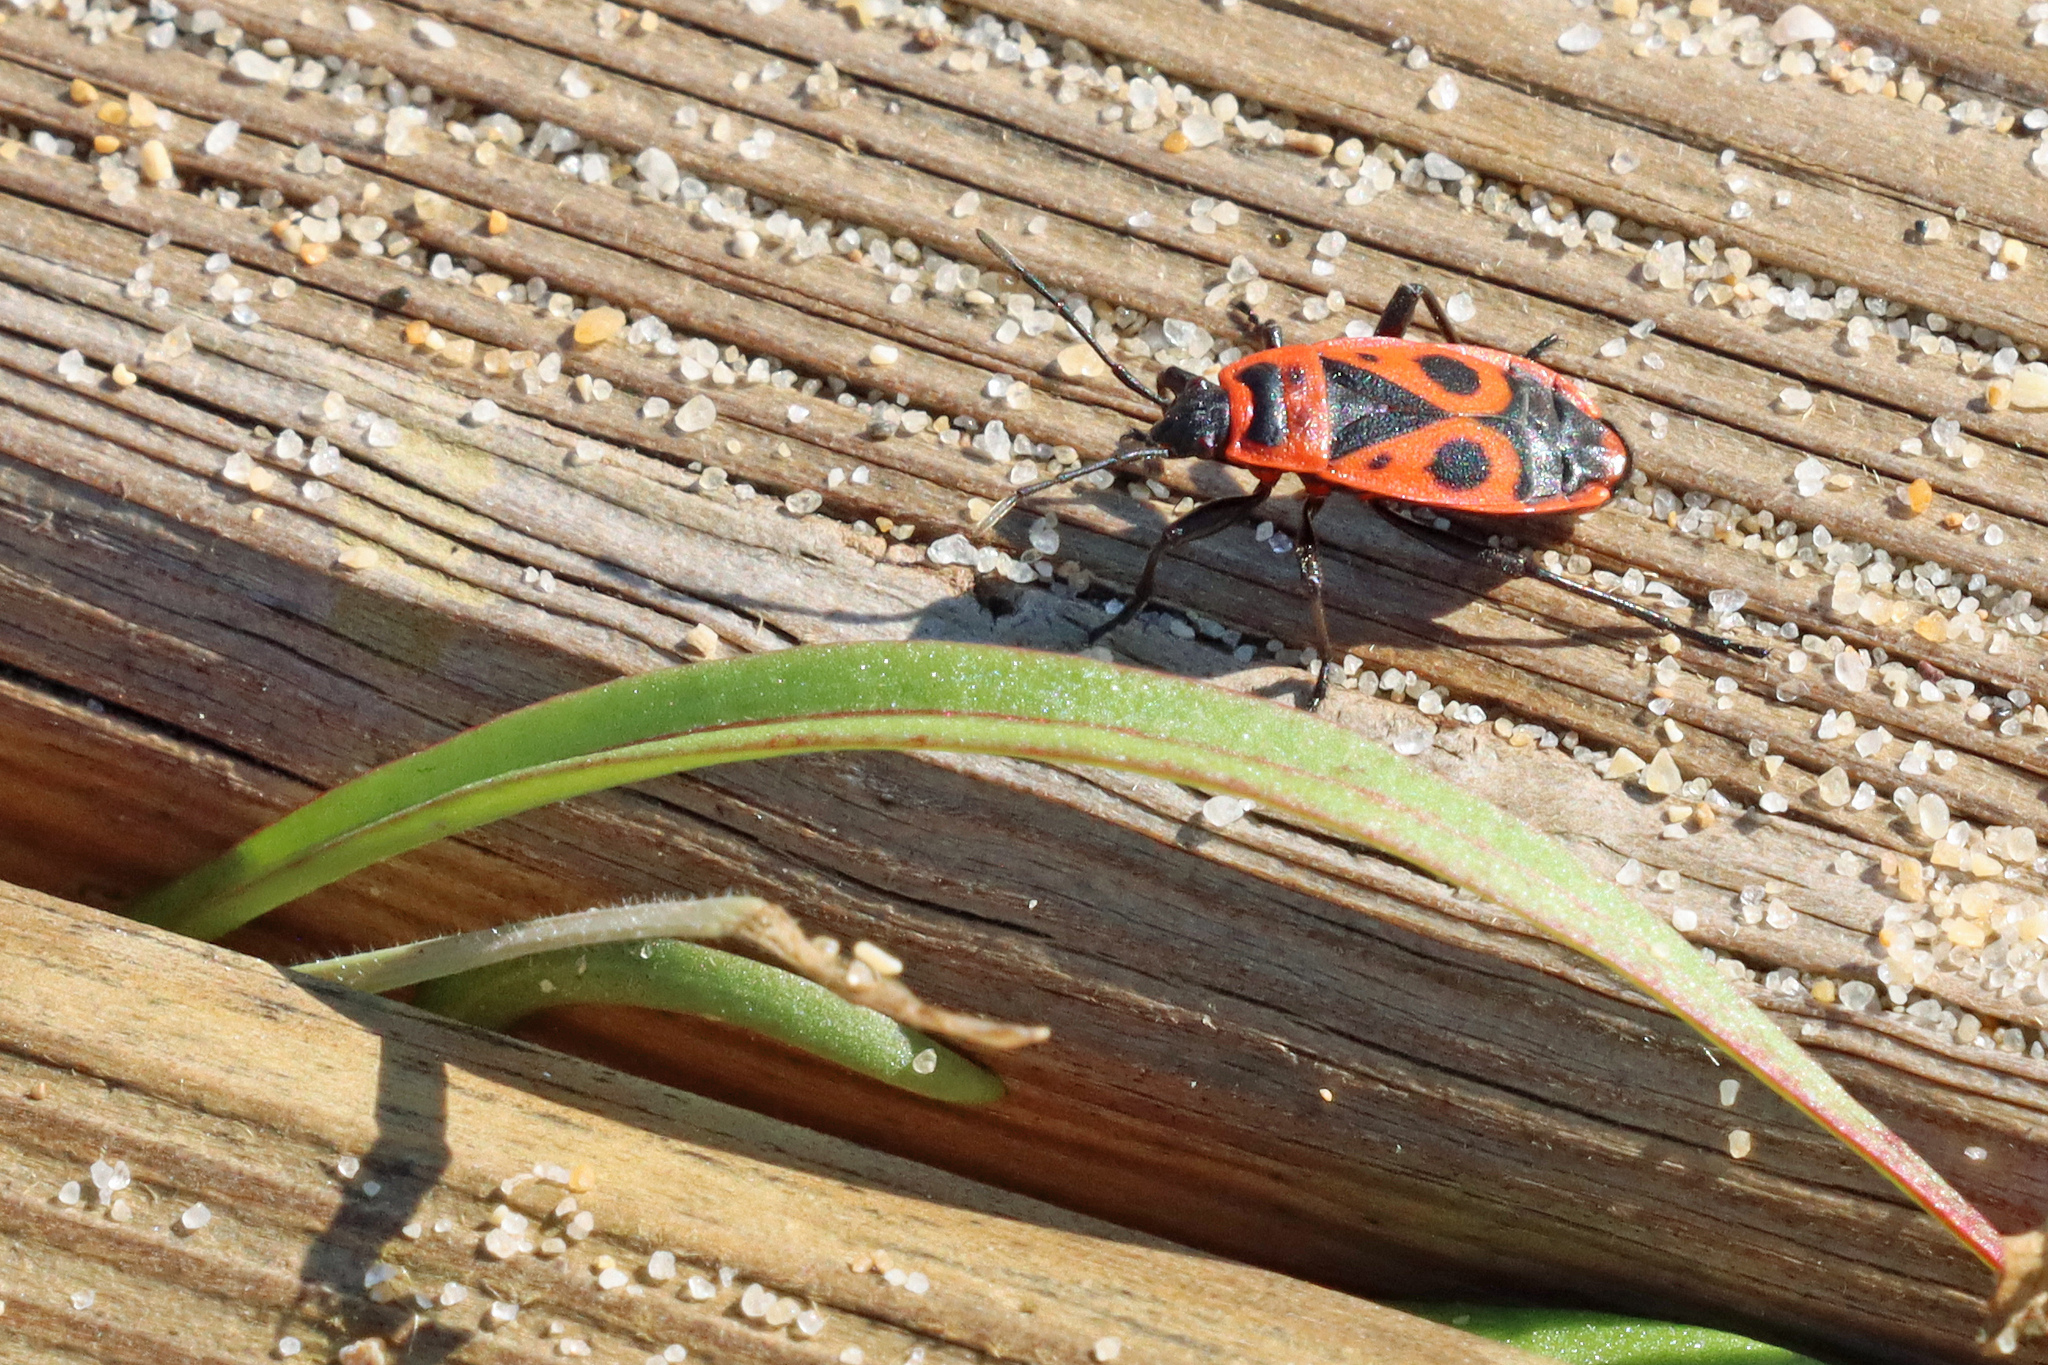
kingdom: Animalia
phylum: Arthropoda
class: Insecta
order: Hemiptera
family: Pyrrhocoridae
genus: Pyrrhocoris
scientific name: Pyrrhocoris apterus
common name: Firebug
